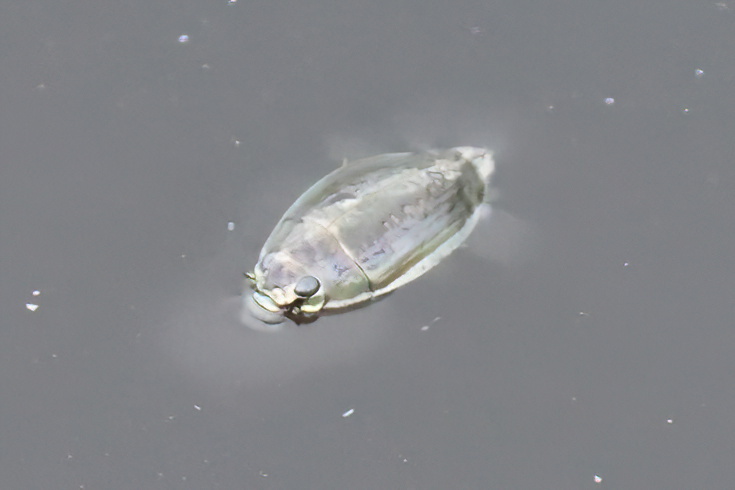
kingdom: Animalia
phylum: Arthropoda
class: Insecta
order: Coleoptera
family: Gyrinidae
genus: Dineutus
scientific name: Dineutus
